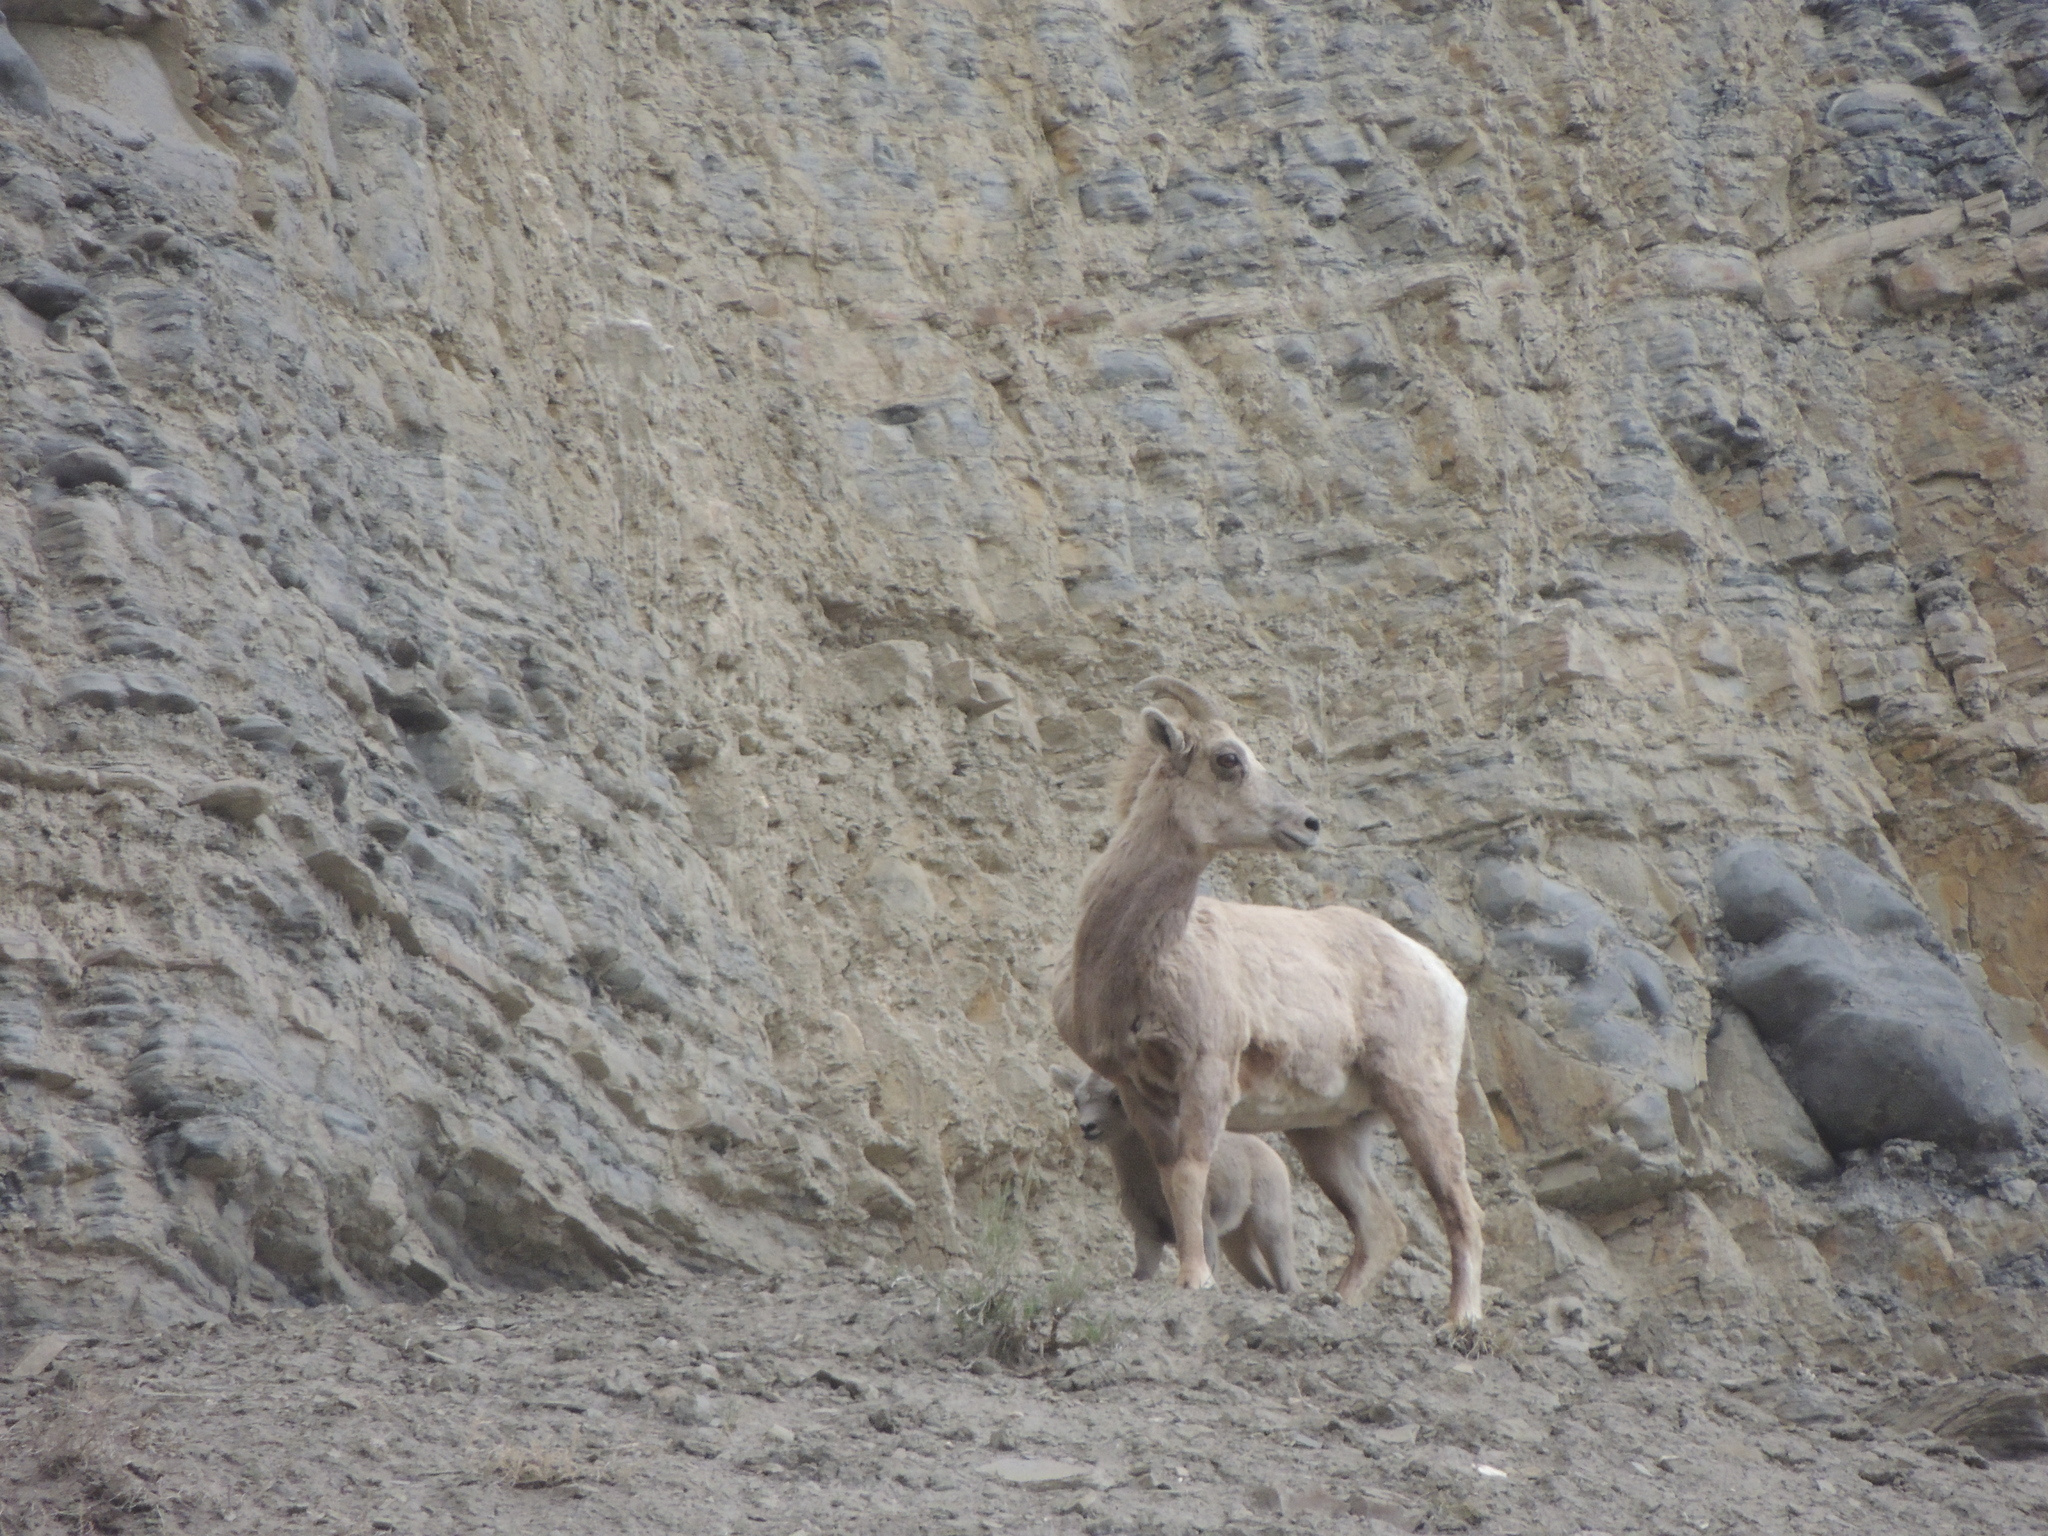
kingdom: Animalia
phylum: Chordata
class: Mammalia
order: Artiodactyla
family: Bovidae
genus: Ovis
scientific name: Ovis canadensis
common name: Bighorn sheep
